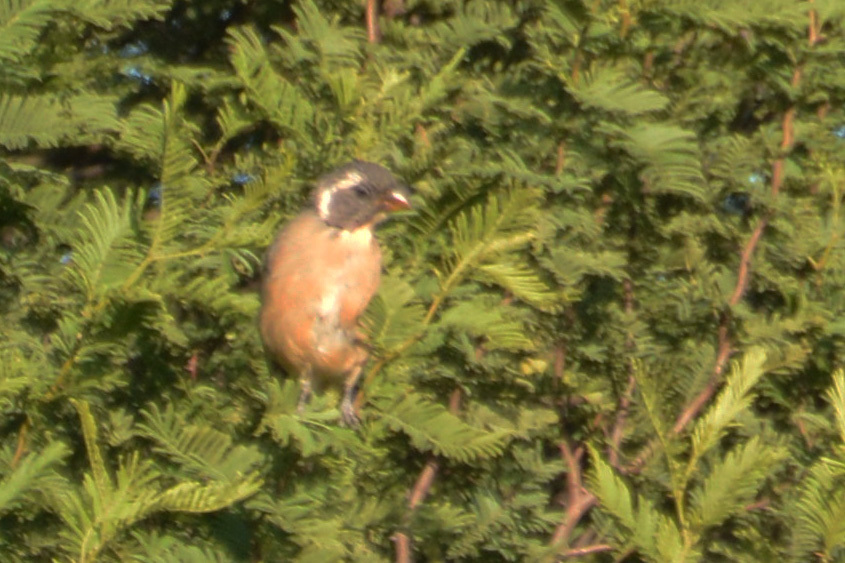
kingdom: Animalia
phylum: Chordata
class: Aves
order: Passeriformes
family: Thraupidae
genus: Saltator
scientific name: Saltator aurantiirostris
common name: Golden-billed saltator
